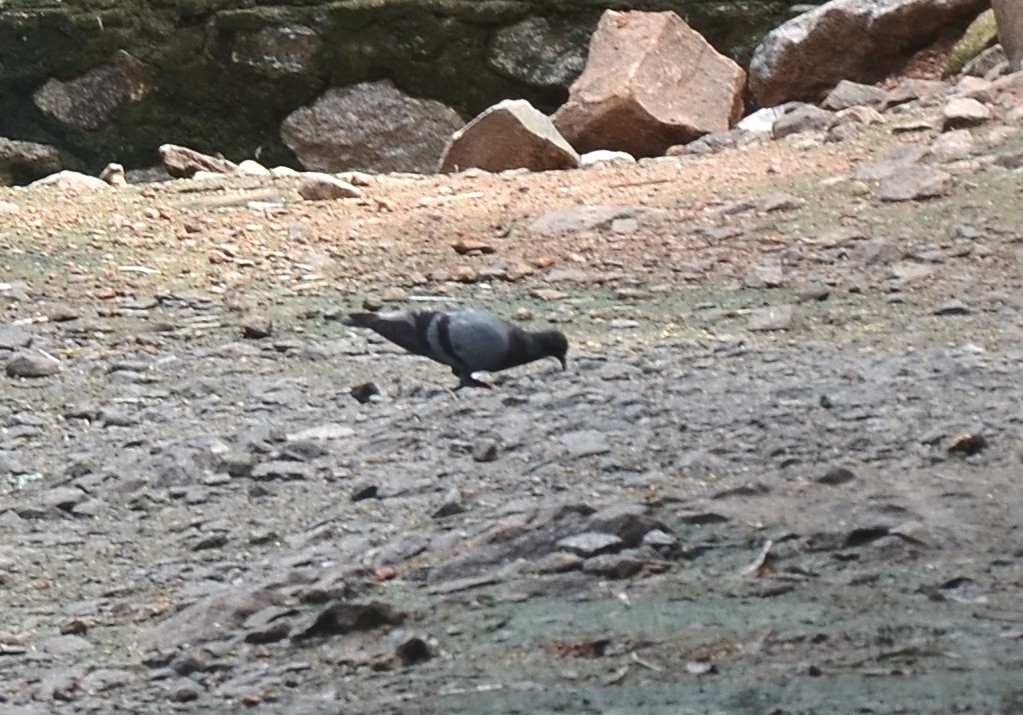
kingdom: Animalia
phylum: Chordata
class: Aves
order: Columbiformes
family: Columbidae
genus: Columba
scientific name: Columba livia
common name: Rock pigeon
